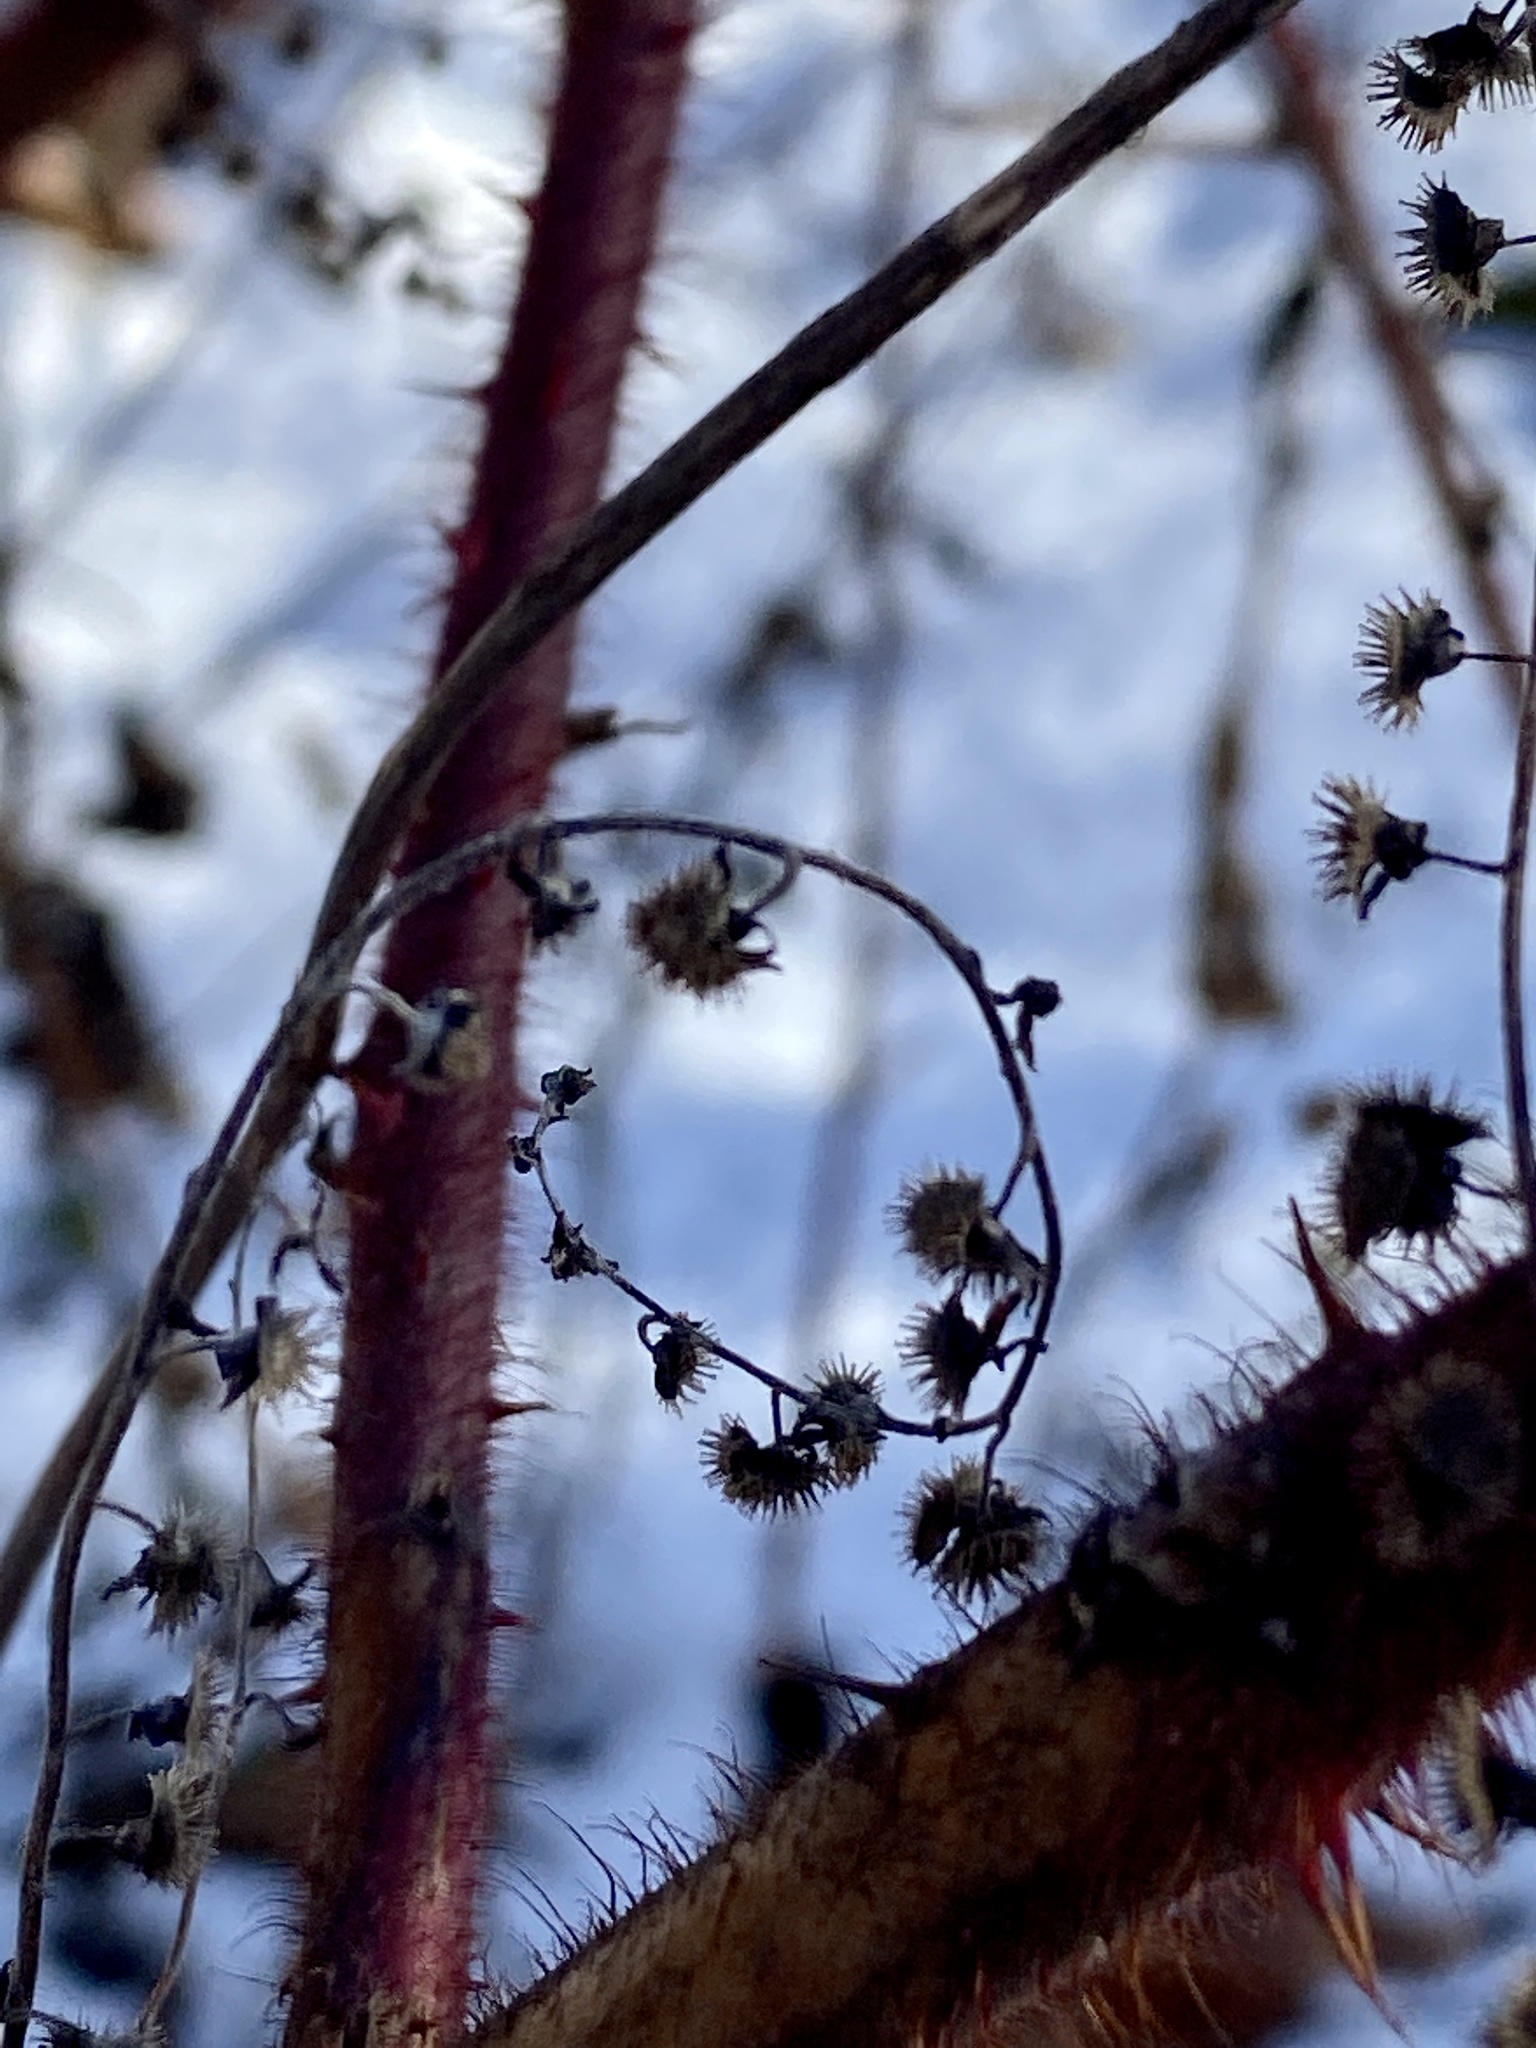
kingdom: Plantae
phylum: Tracheophyta
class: Magnoliopsida
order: Boraginales
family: Boraginaceae
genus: Hackelia
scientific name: Hackelia virginiana
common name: Beggar's-lice
